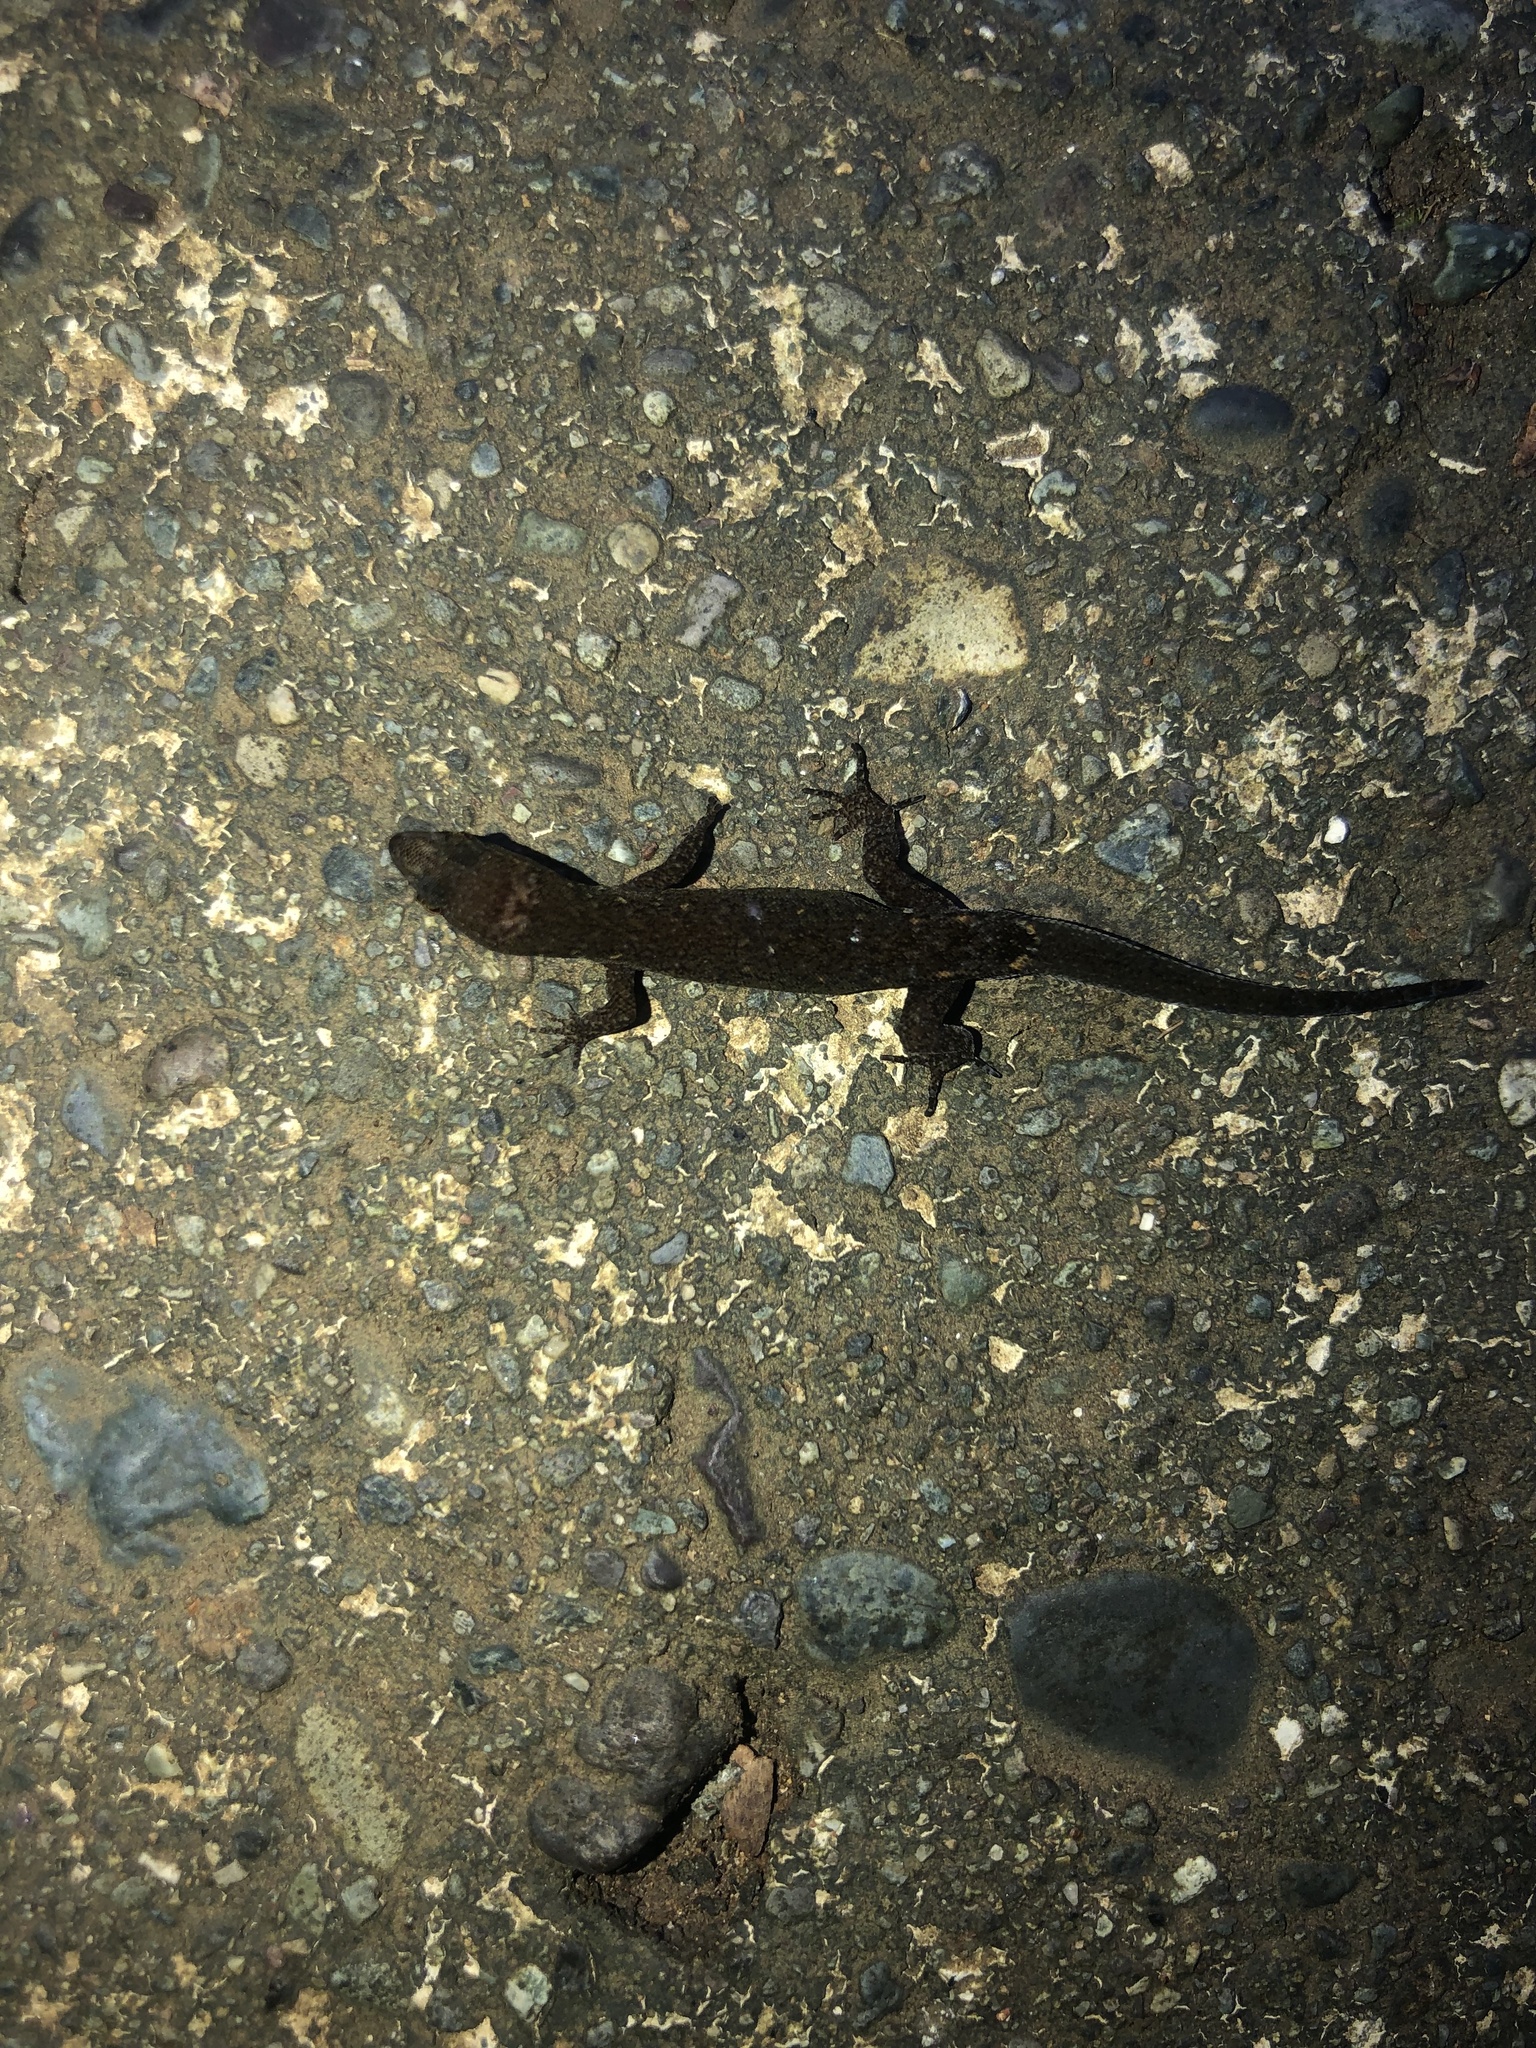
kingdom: Animalia
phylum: Chordata
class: Squamata
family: Sphaerodactylidae
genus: Lepidoblepharis
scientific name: Lepidoblepharis xanthostigma
